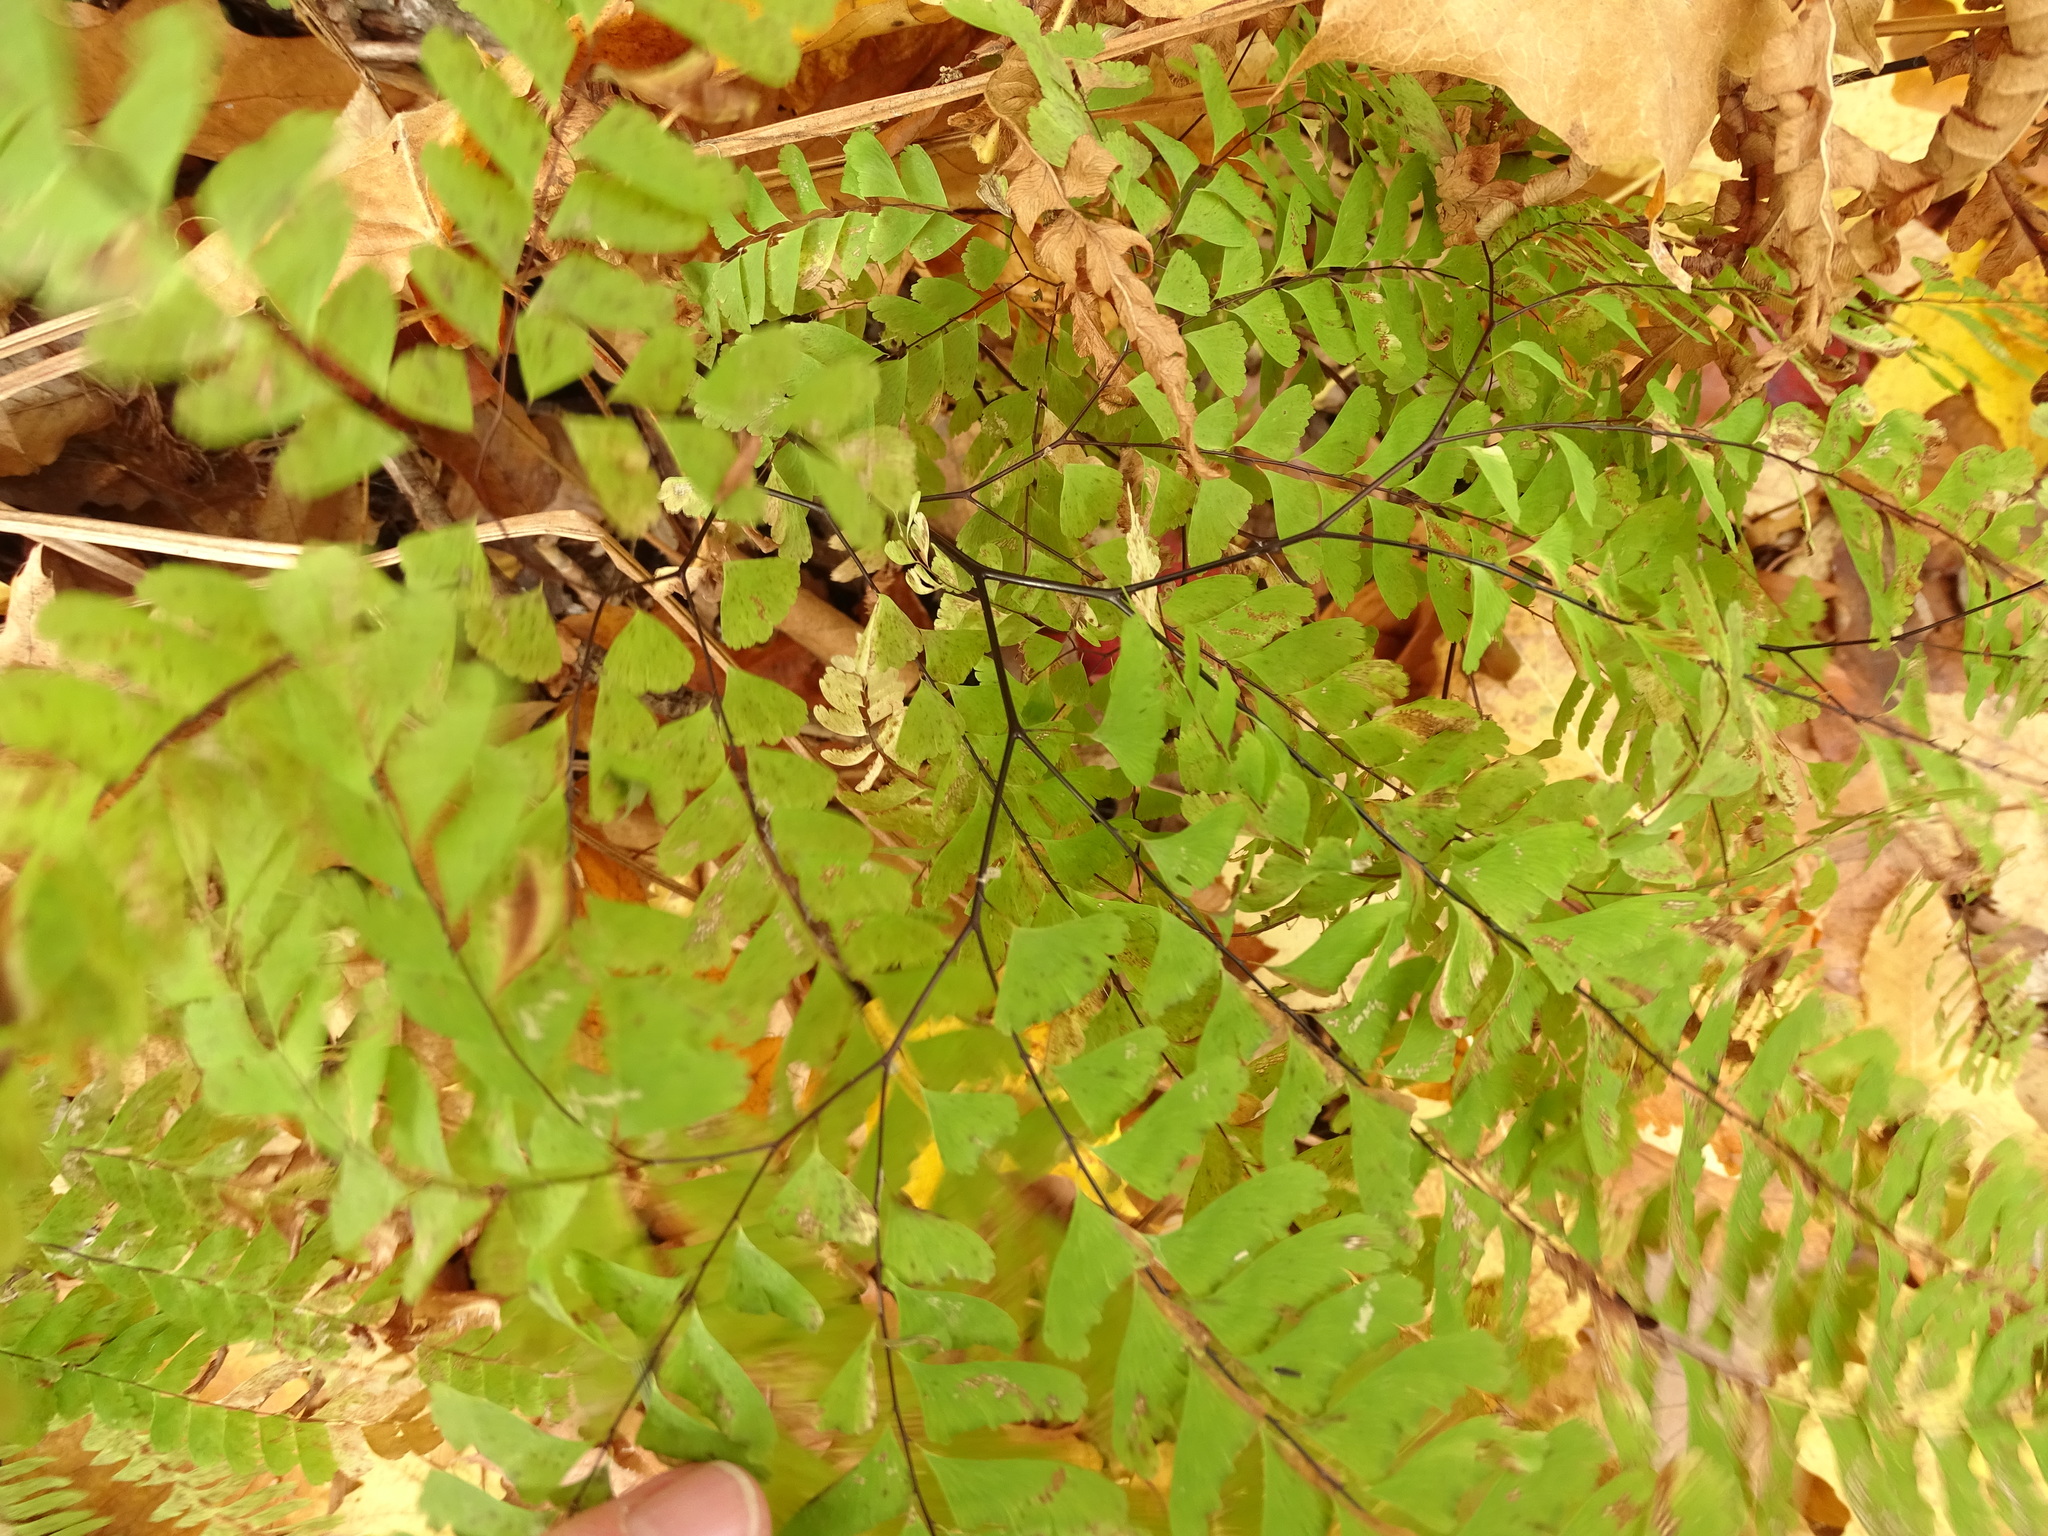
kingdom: Plantae
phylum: Tracheophyta
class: Polypodiopsida
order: Polypodiales
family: Pteridaceae
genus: Adiantum
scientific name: Adiantum pedatum
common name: Five-finger fern
